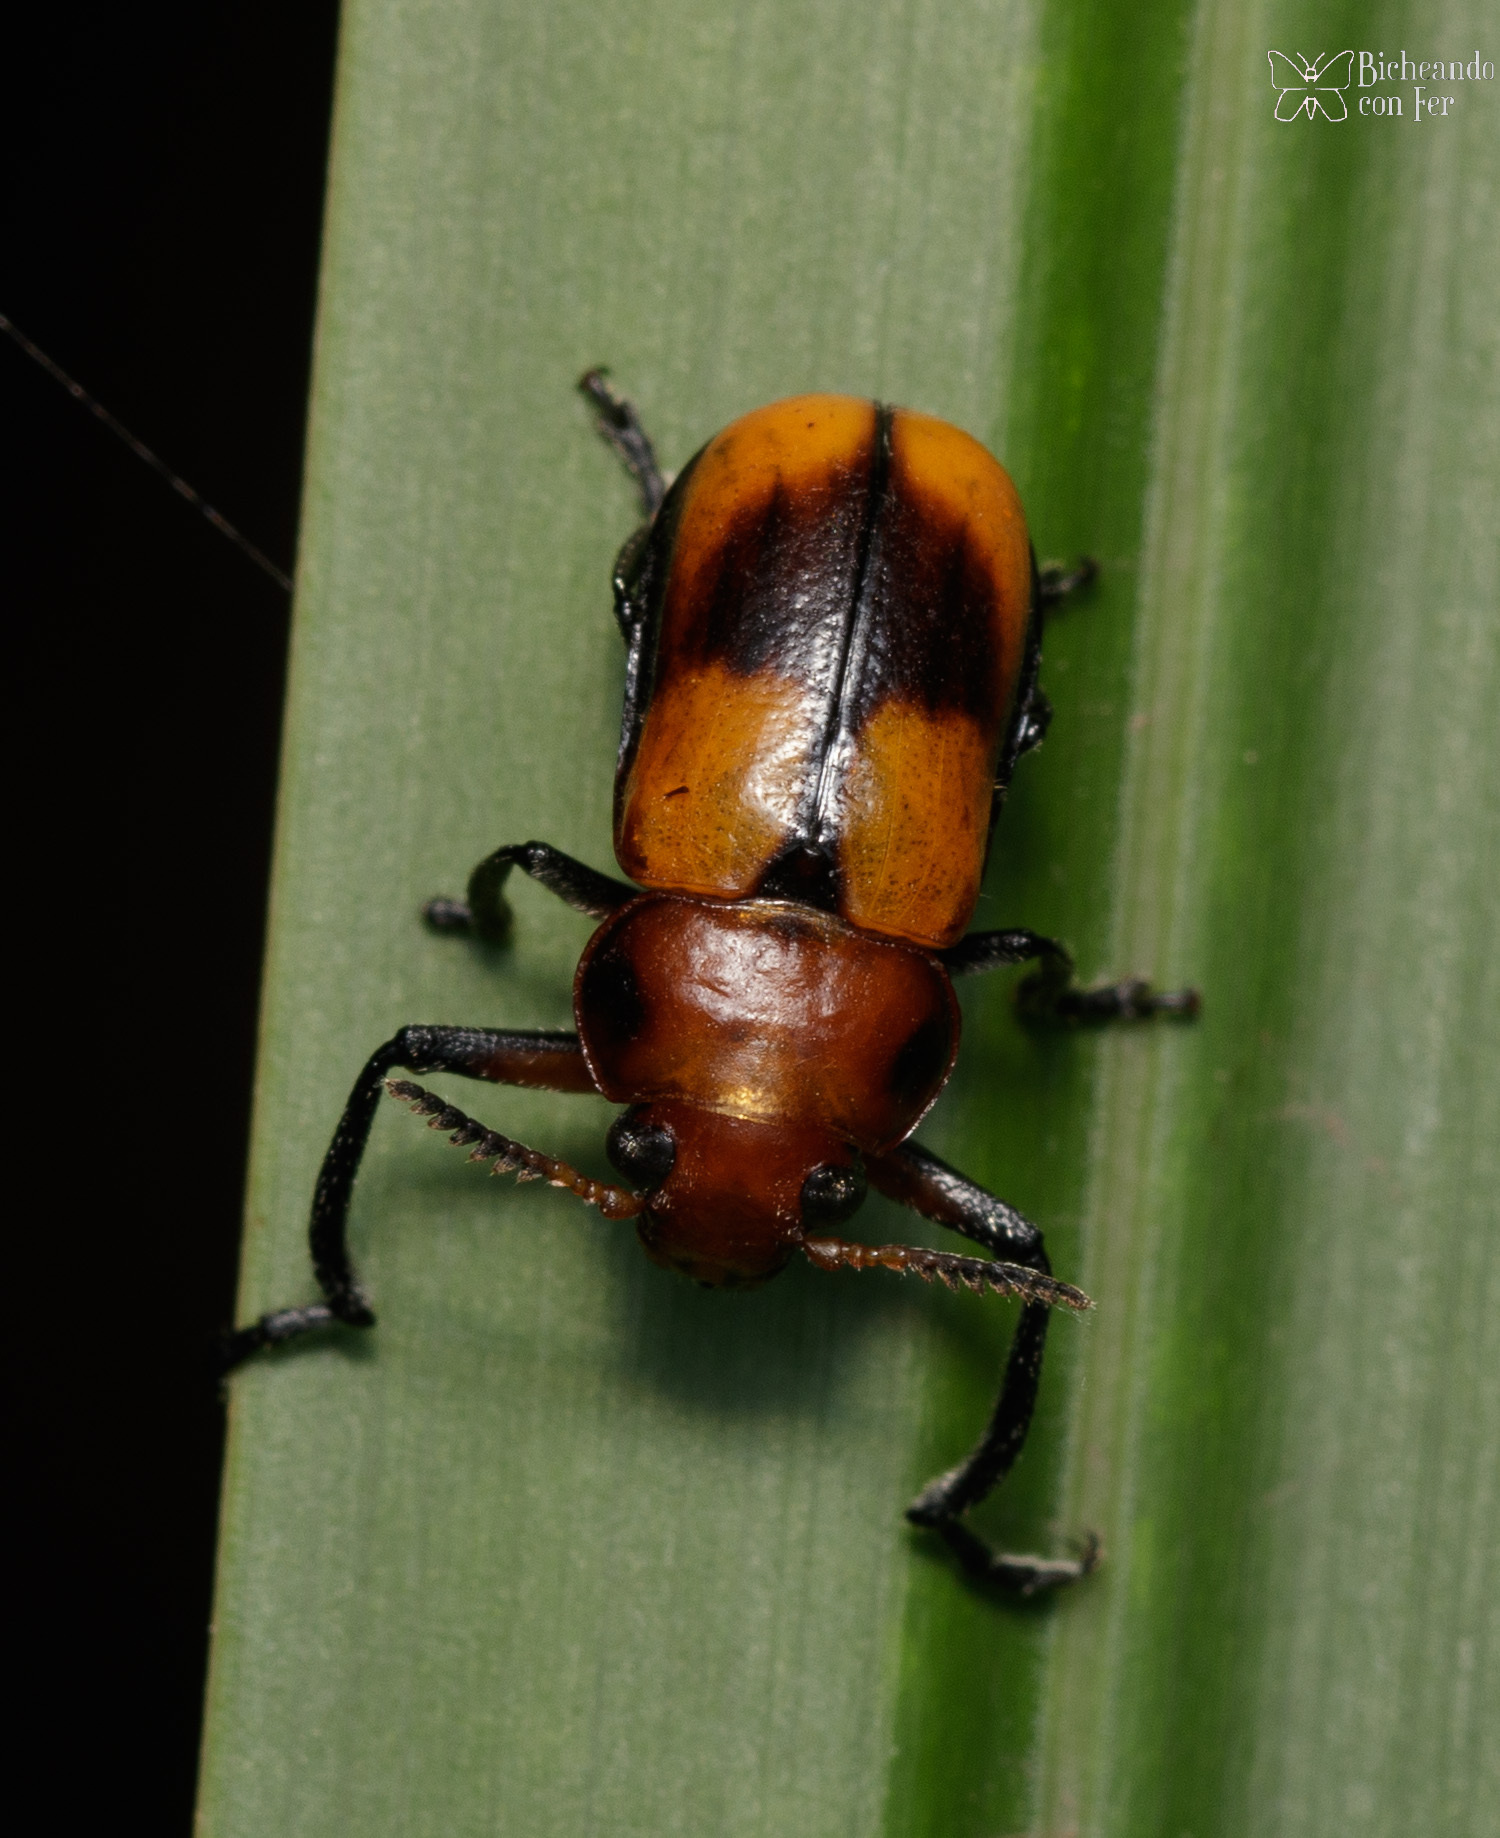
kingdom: Animalia
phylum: Arthropoda
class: Insecta
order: Coleoptera
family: Chrysomelidae
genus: Anomoea
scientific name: Anomoea rufifrons
